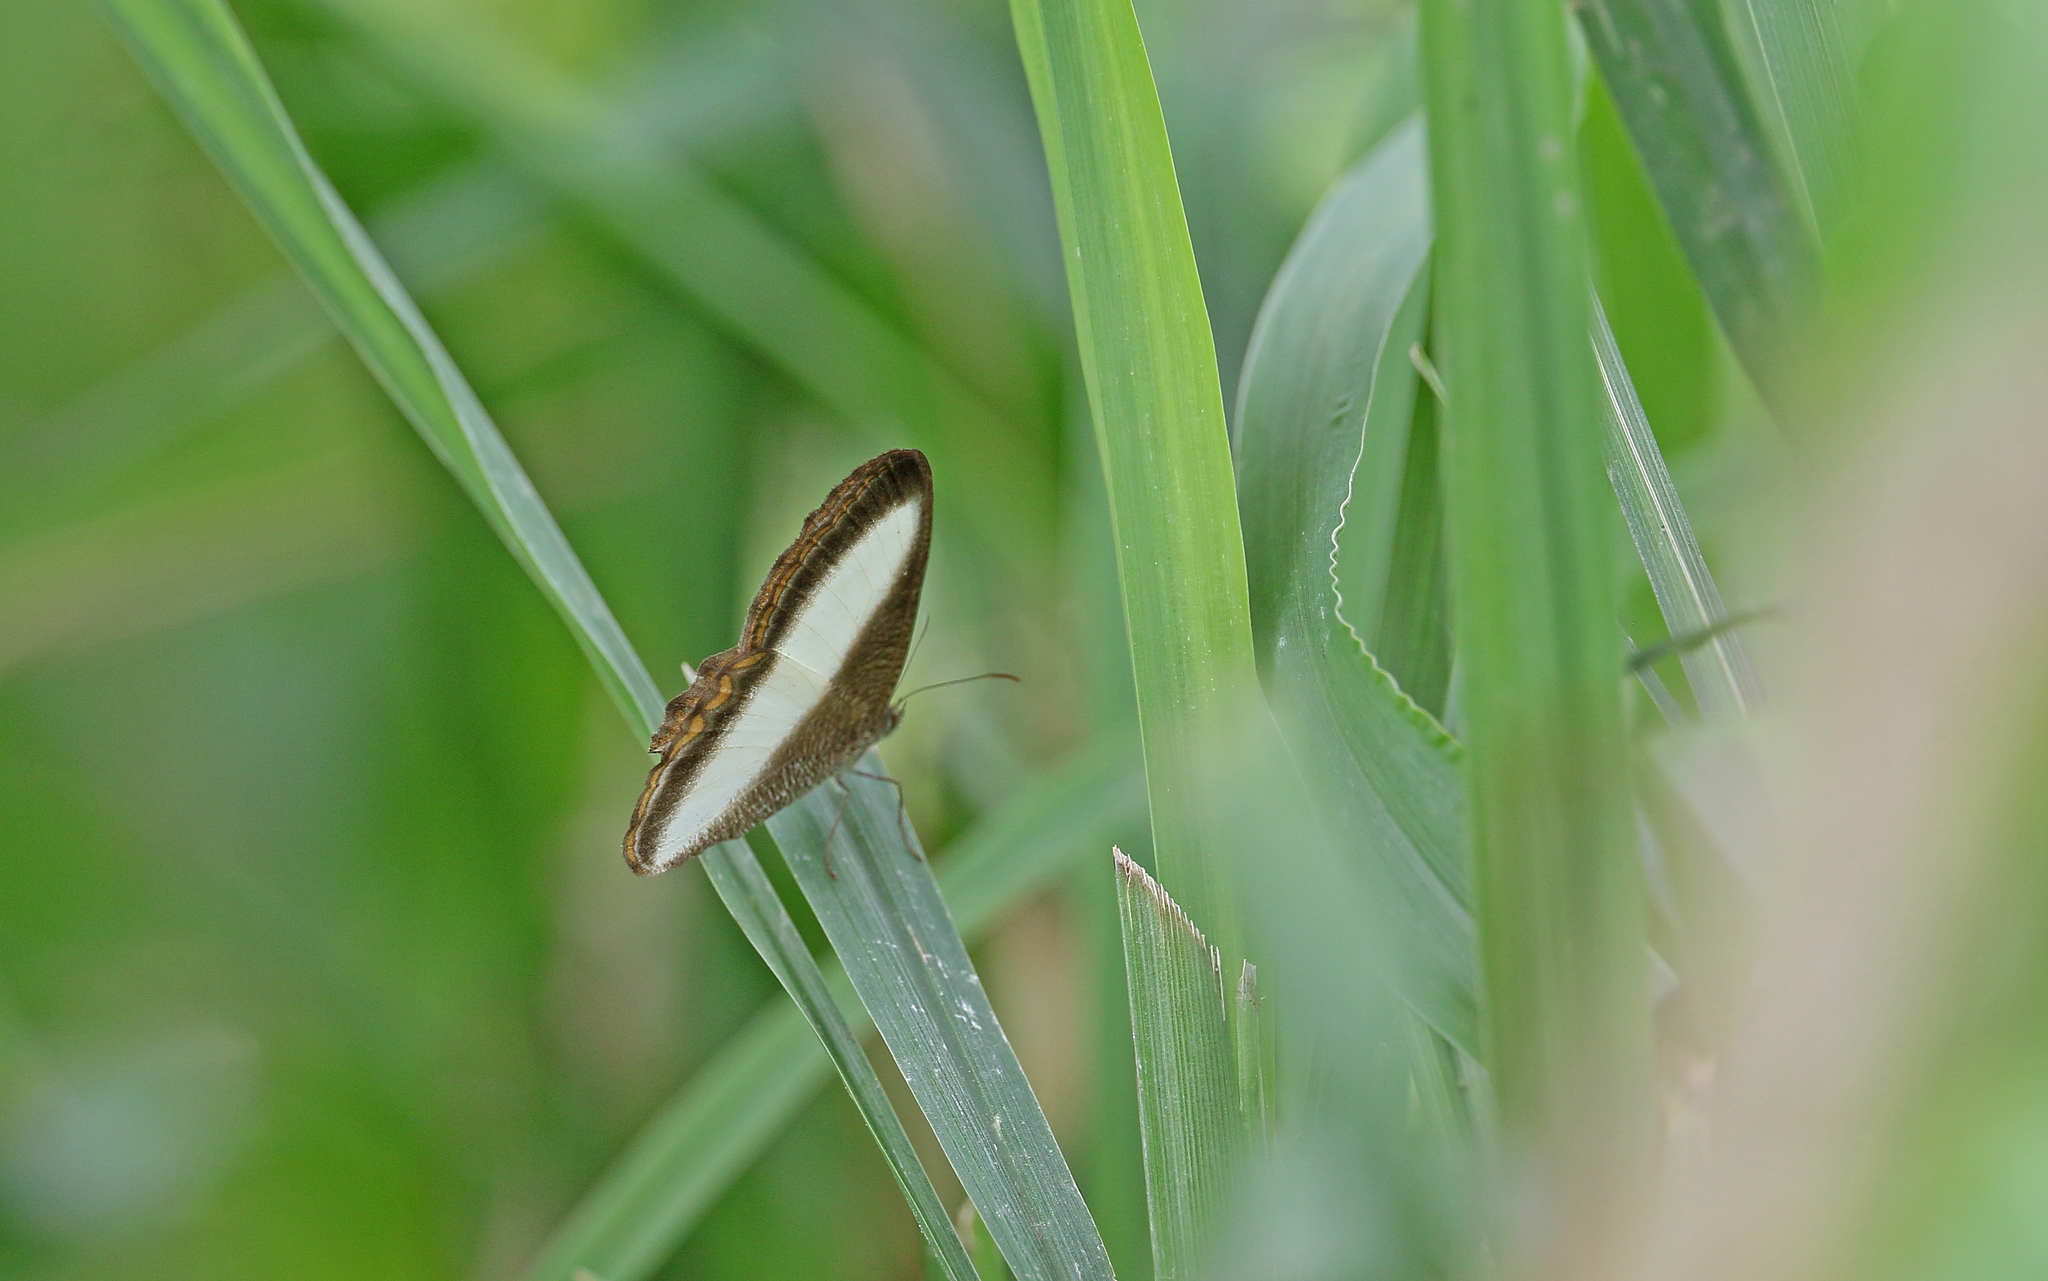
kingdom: Animalia
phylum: Arthropoda
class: Insecta
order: Lepidoptera
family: Nymphalidae
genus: Oressinoma
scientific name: Oressinoma typhla
